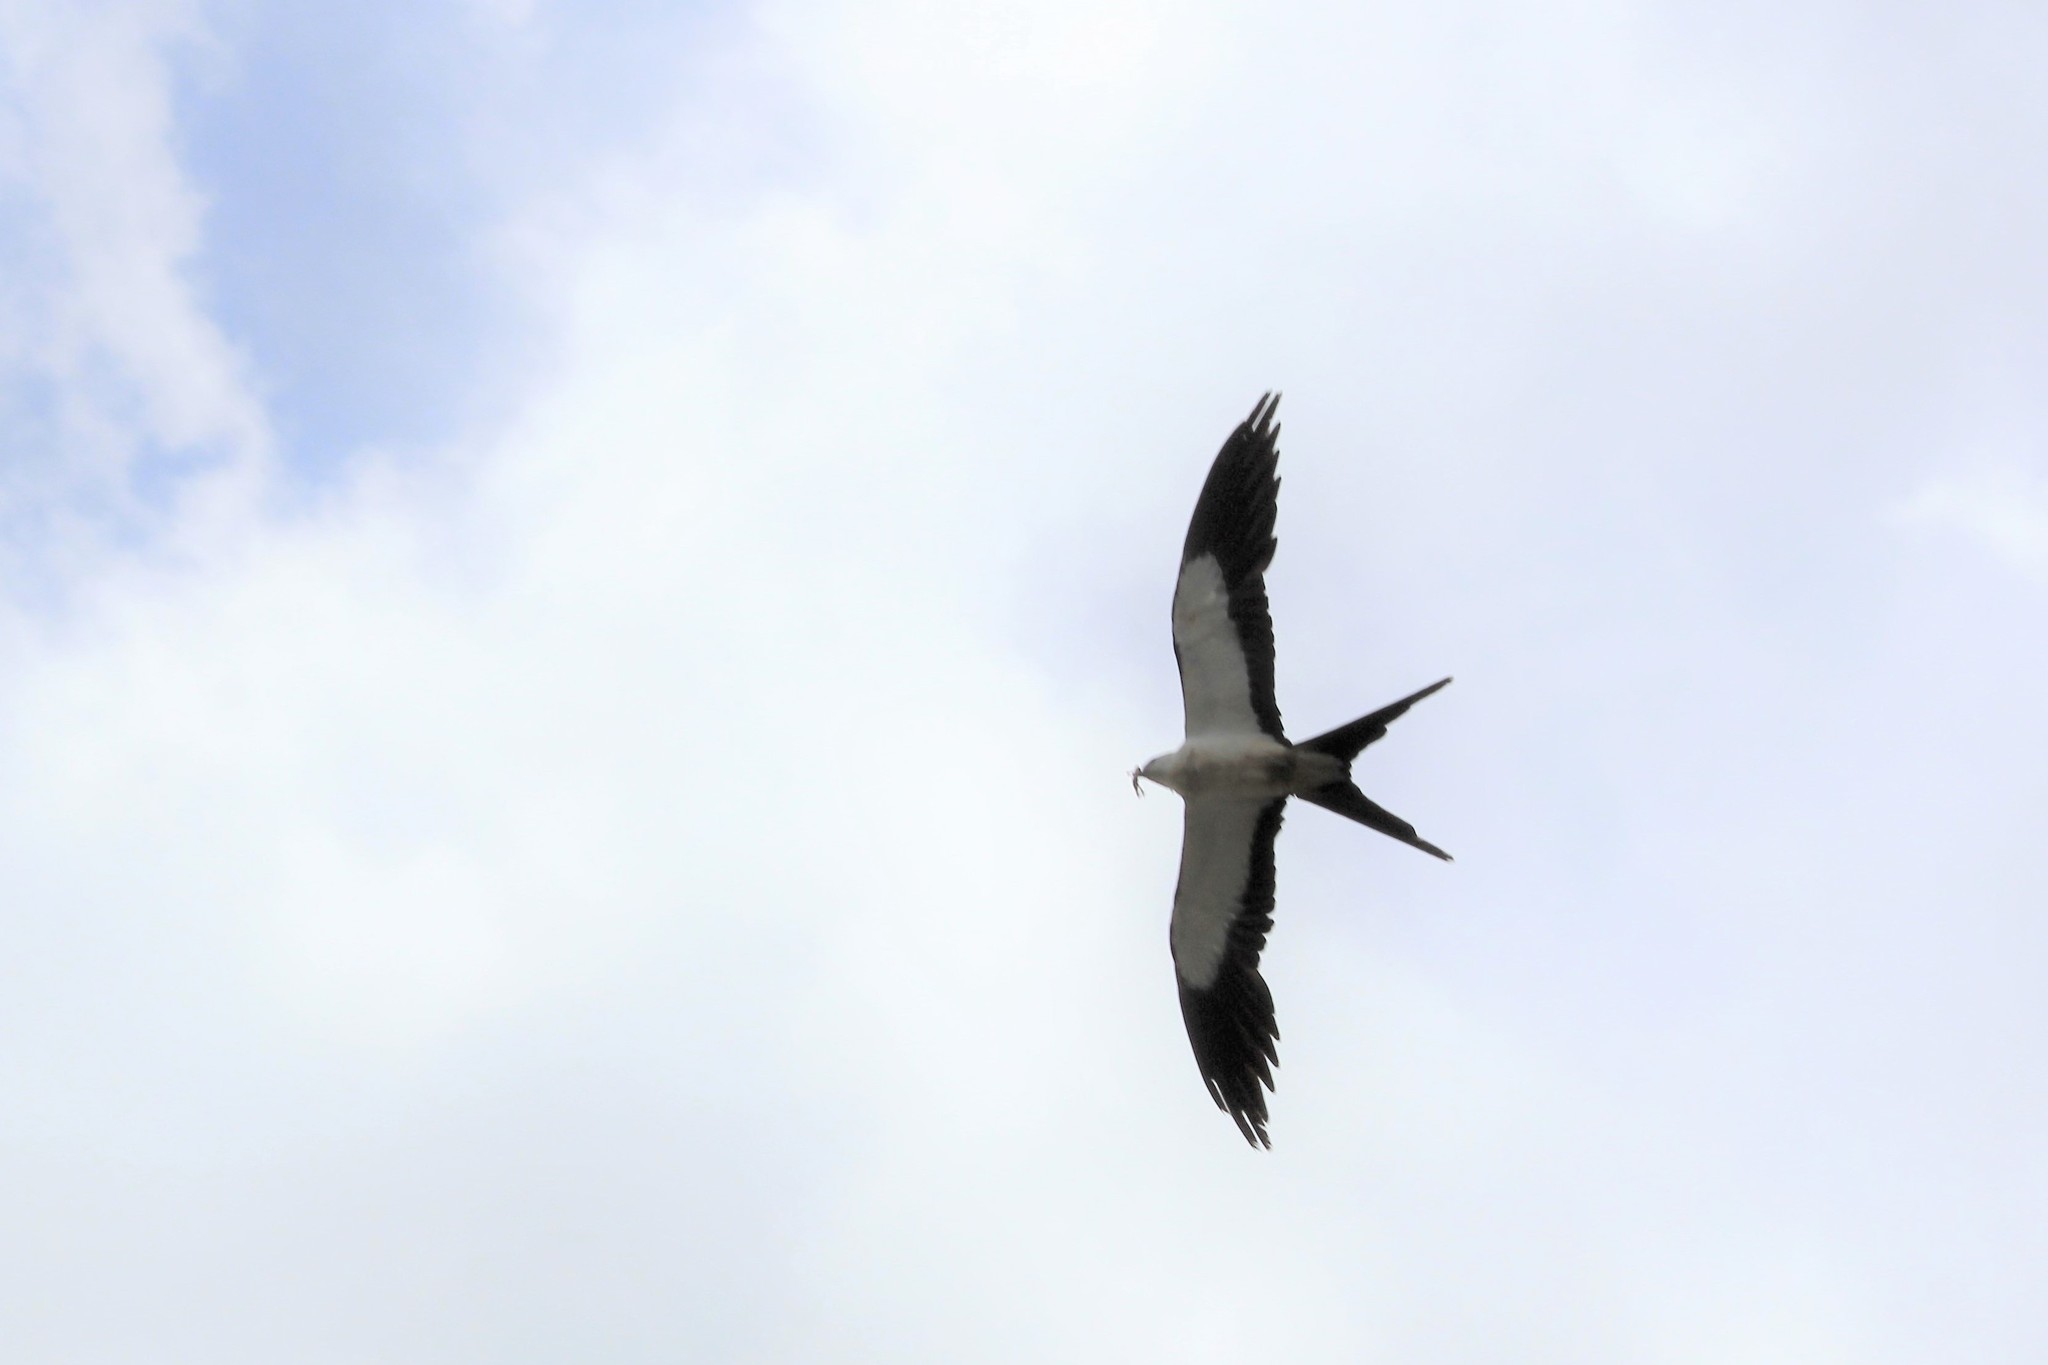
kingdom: Animalia
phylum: Chordata
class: Aves
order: Accipitriformes
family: Accipitridae
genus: Elanoides
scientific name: Elanoides forficatus
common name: Swallow-tailed kite
